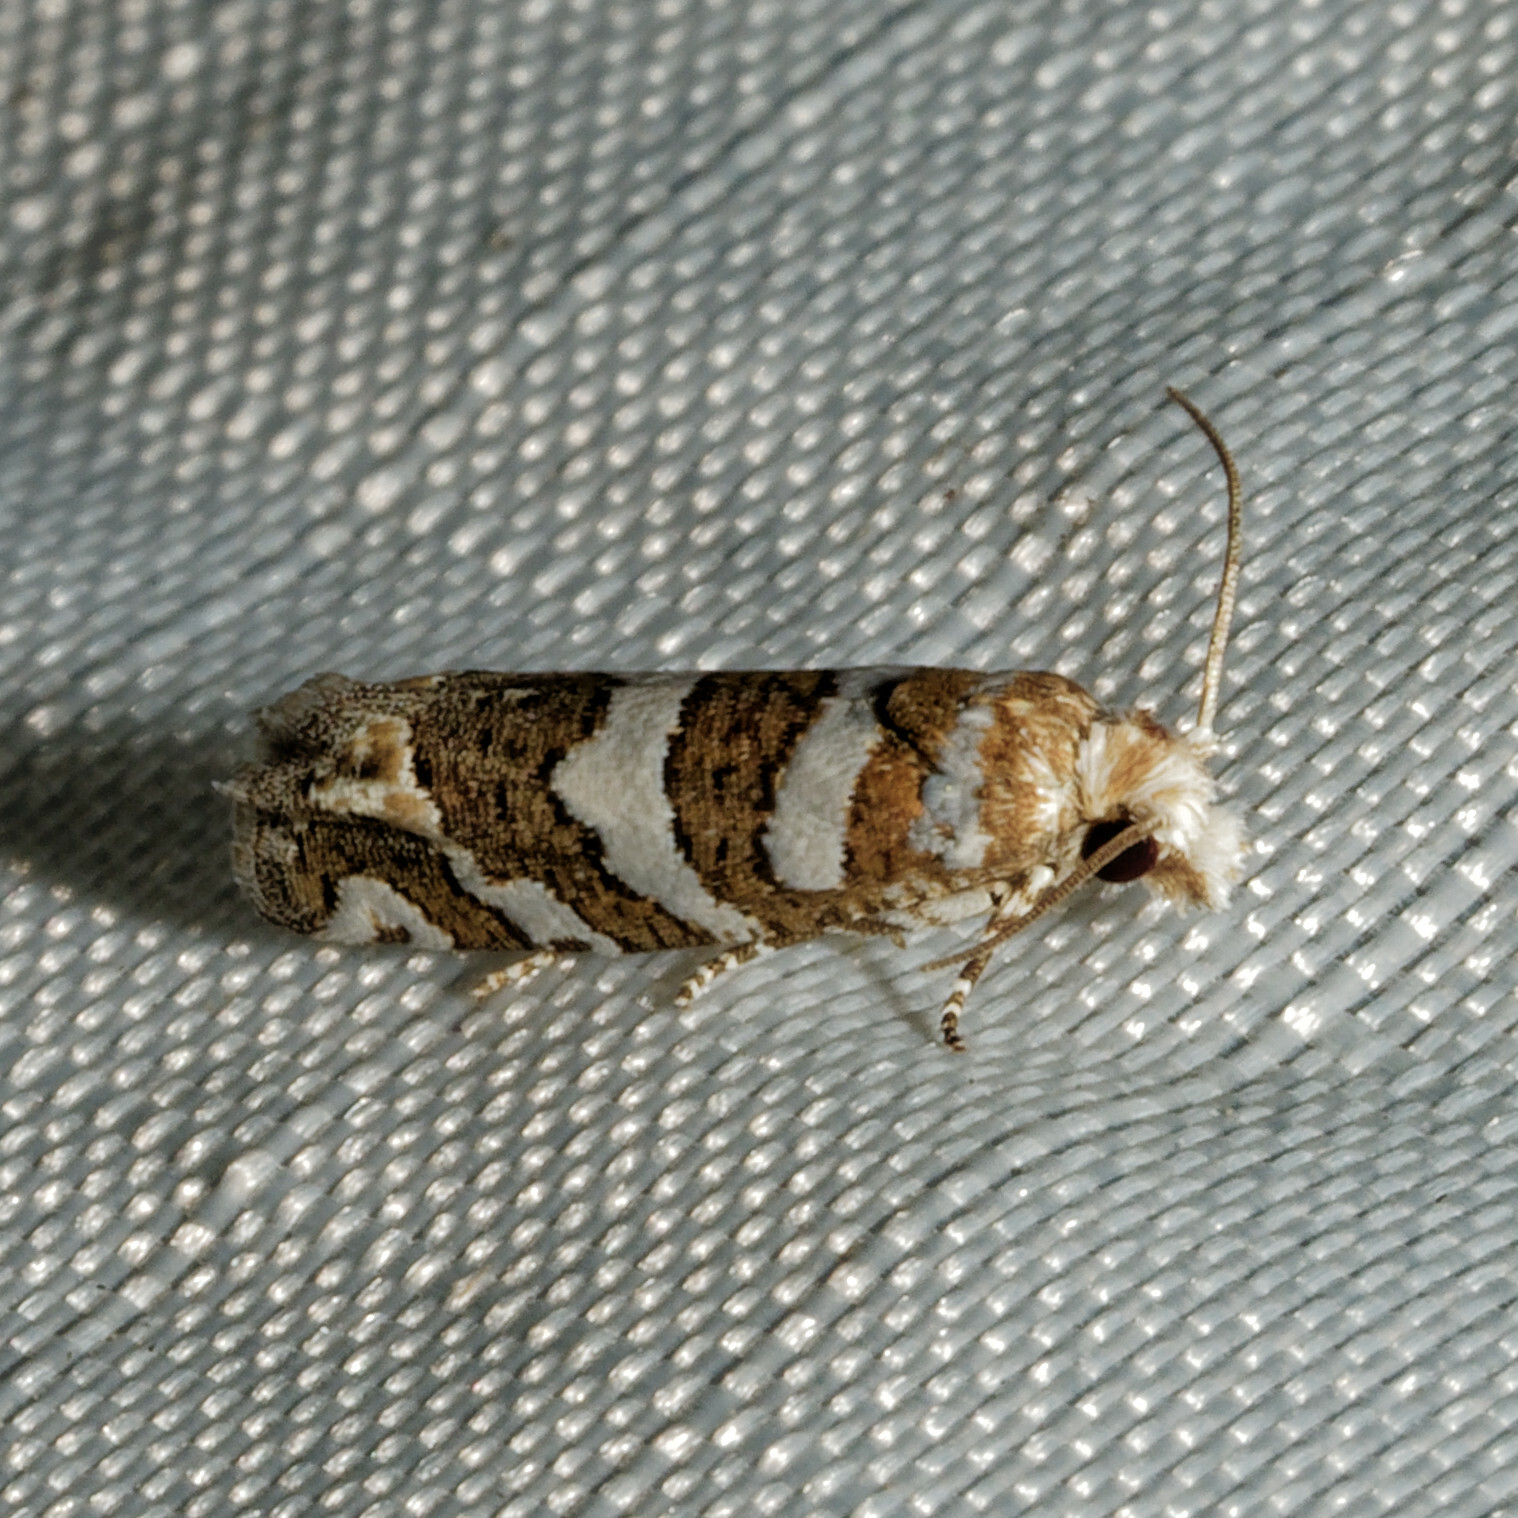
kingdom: Animalia
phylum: Arthropoda
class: Insecta
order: Lepidoptera
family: Tortricidae
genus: Pelochrista
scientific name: Pelochrista robinsonana
